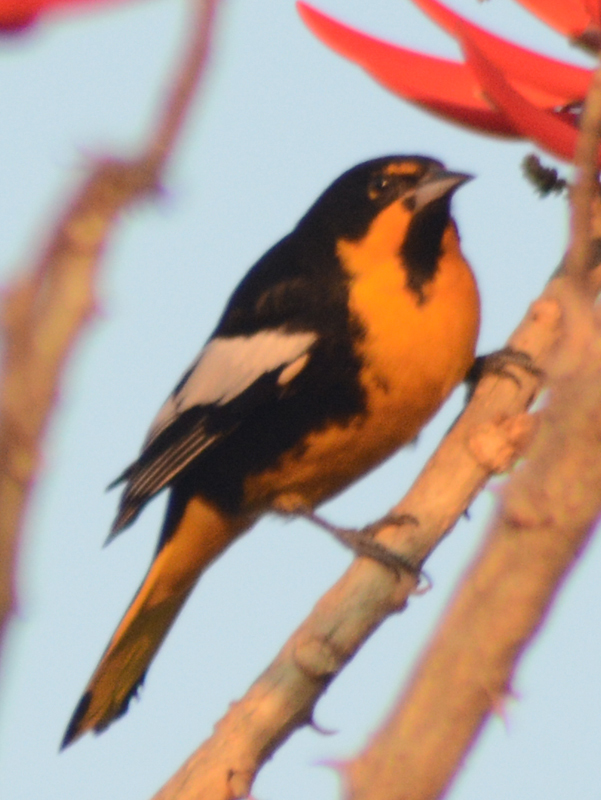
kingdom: Animalia
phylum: Chordata
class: Aves
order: Passeriformes
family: Icteridae
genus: Icterus
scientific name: Icterus abeillei
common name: Black-backed oriole
